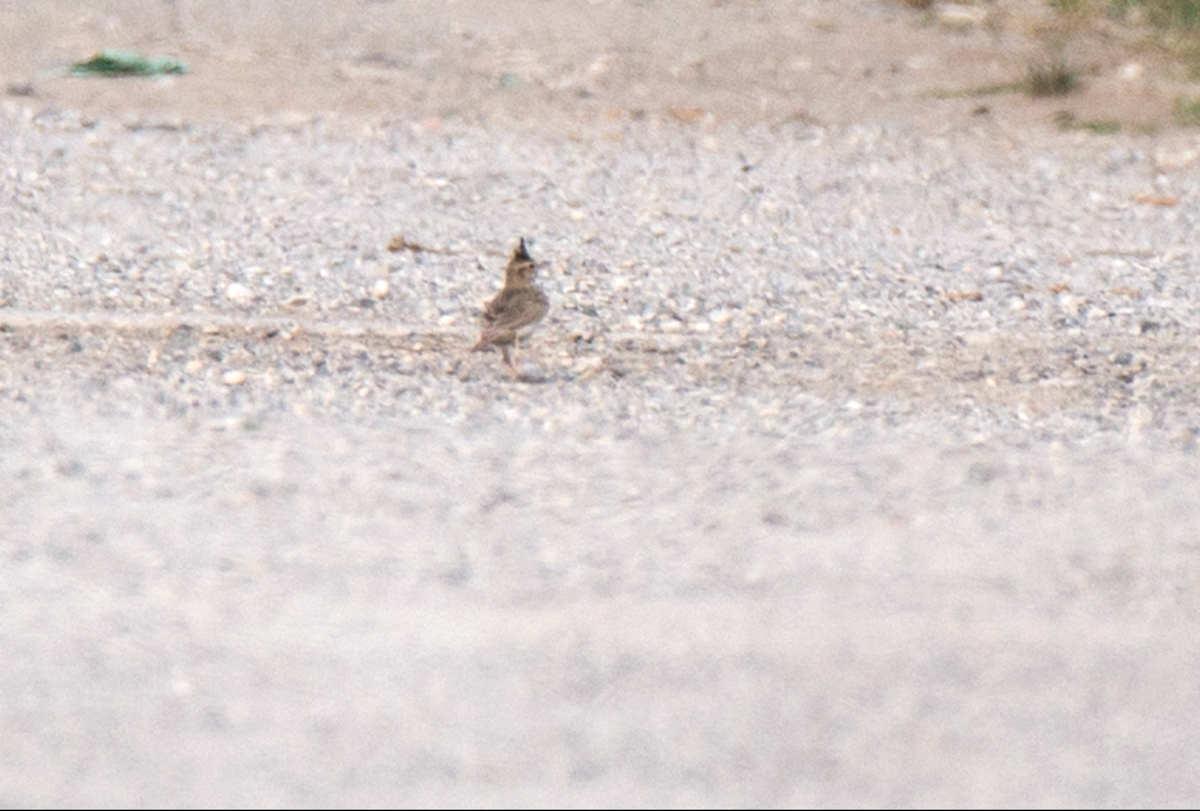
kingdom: Animalia
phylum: Chordata
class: Aves
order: Passeriformes
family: Alaudidae
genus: Galerida
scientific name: Galerida cristata
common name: Crested lark
